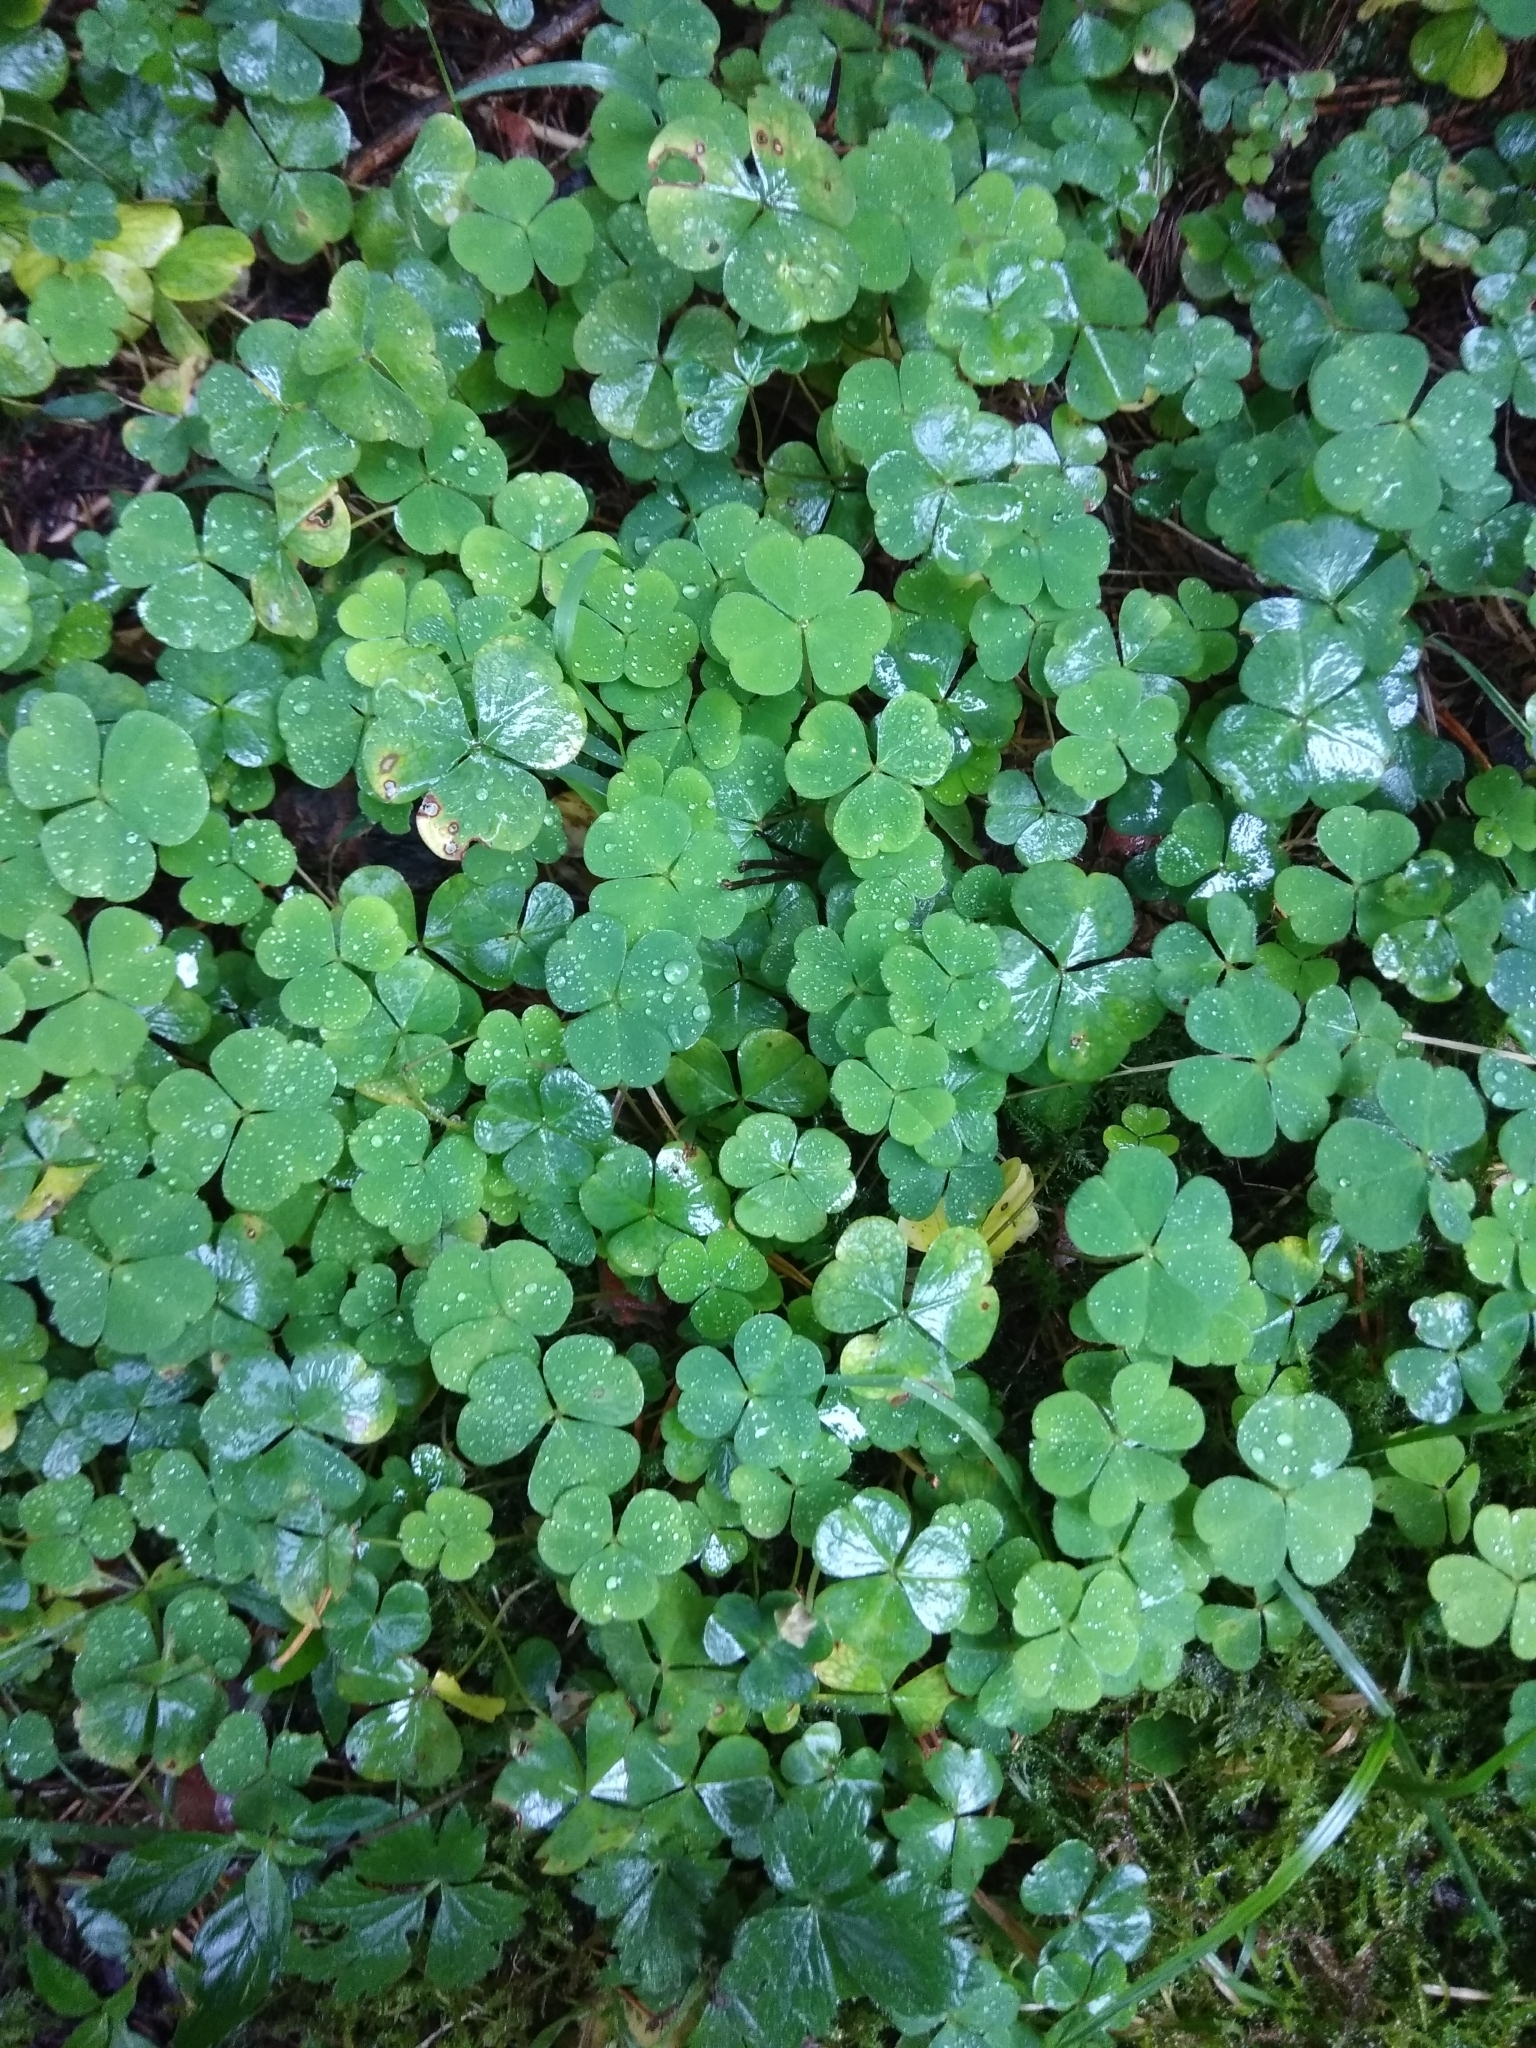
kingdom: Plantae
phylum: Tracheophyta
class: Magnoliopsida
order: Oxalidales
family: Oxalidaceae
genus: Oxalis
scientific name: Oxalis acetosella
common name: Wood-sorrel
